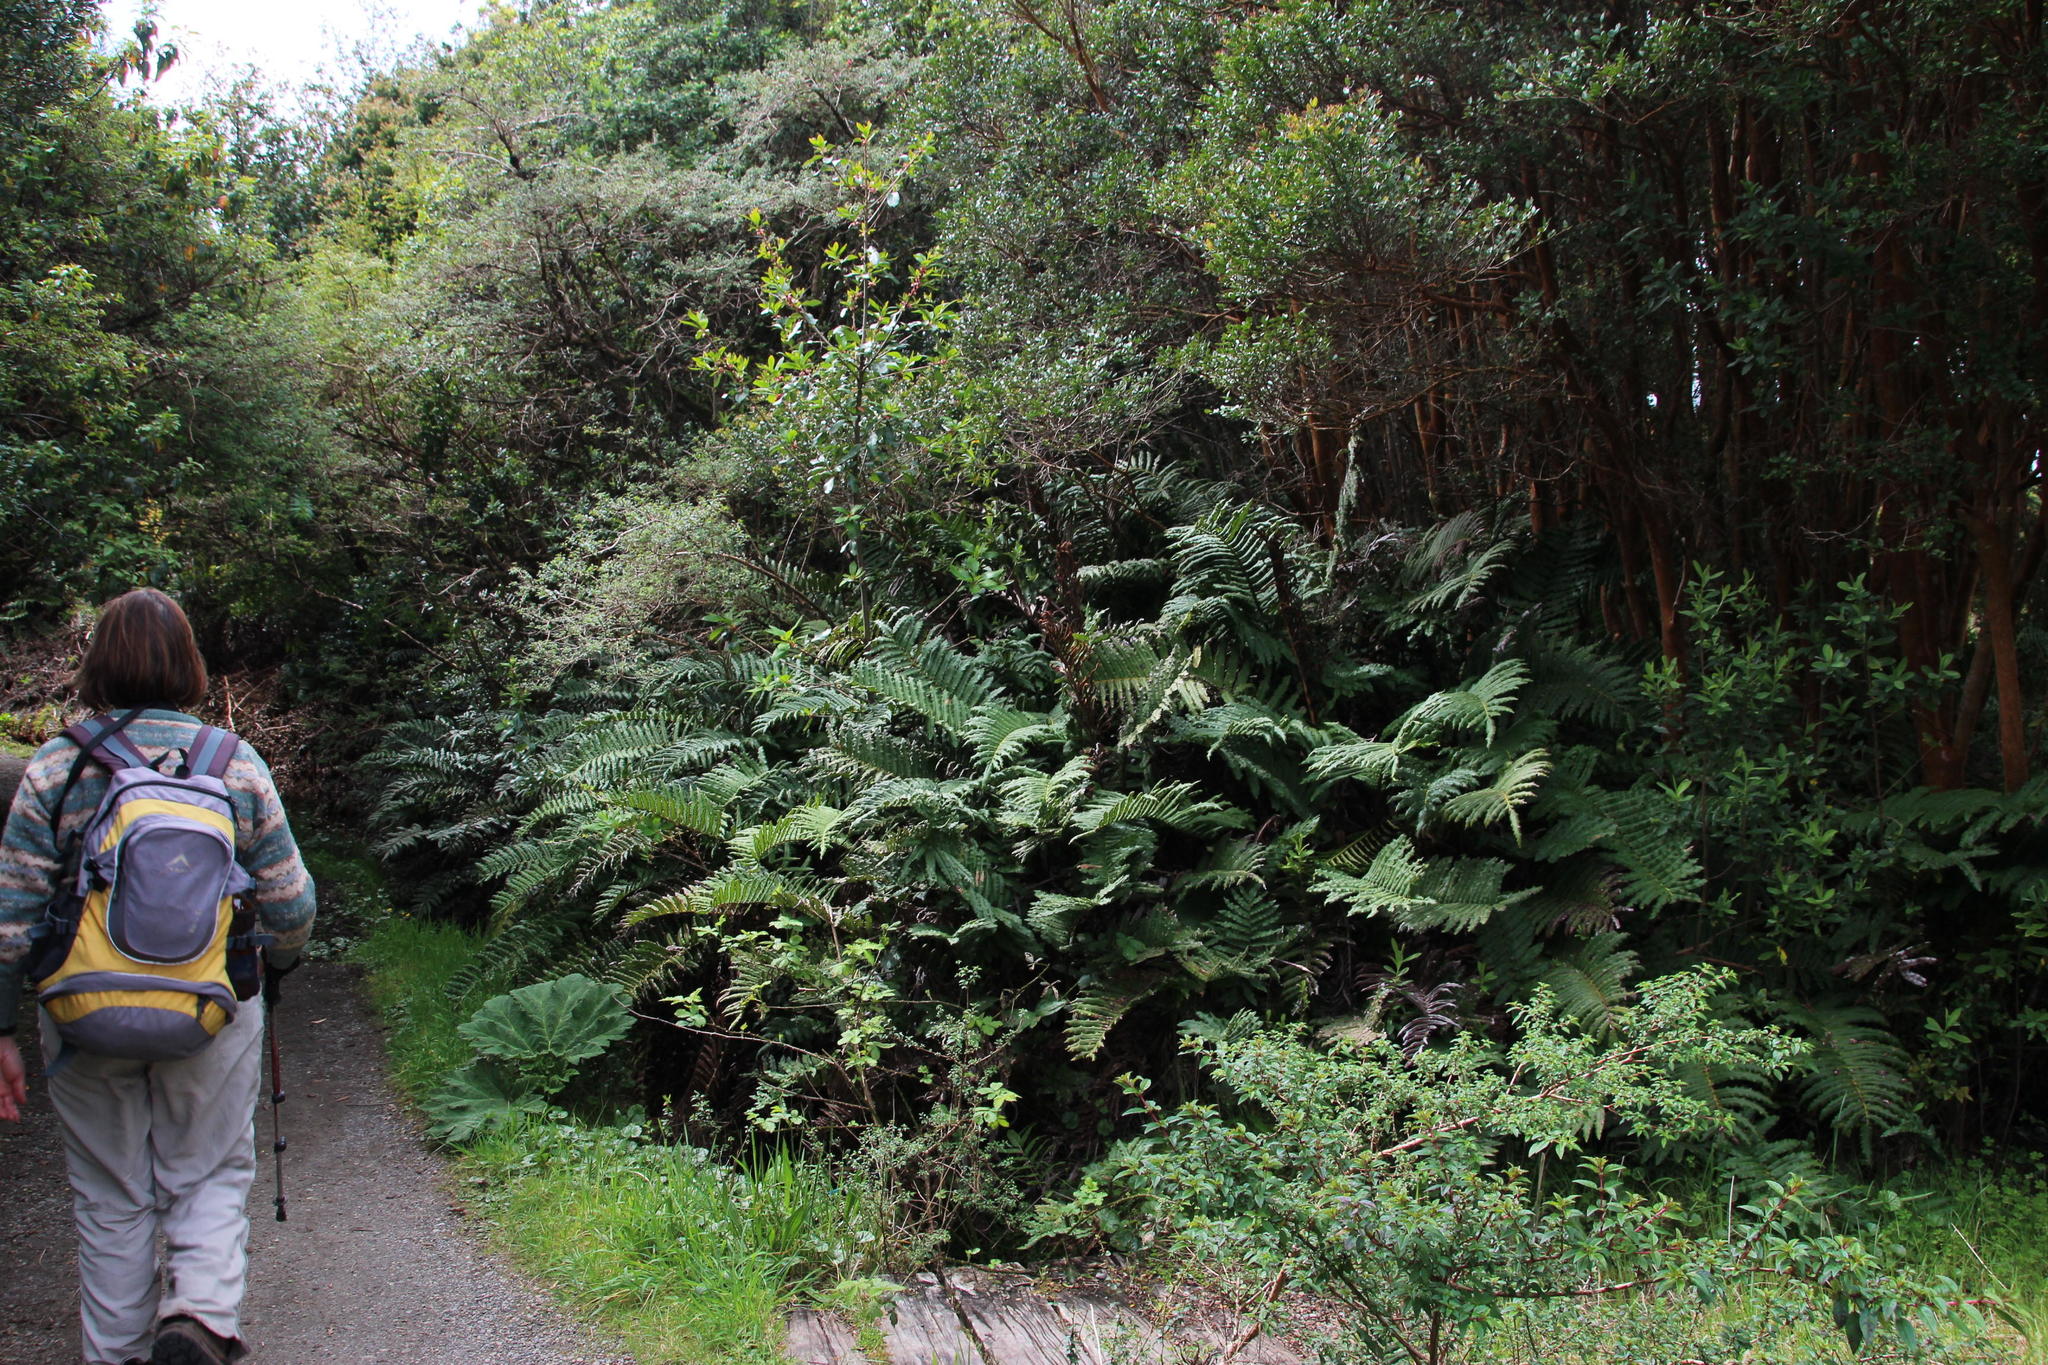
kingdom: Plantae
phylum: Tracheophyta
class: Polypodiopsida
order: Polypodiales
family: Blechnaceae
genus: Parablechnum
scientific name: Parablechnum chilense
